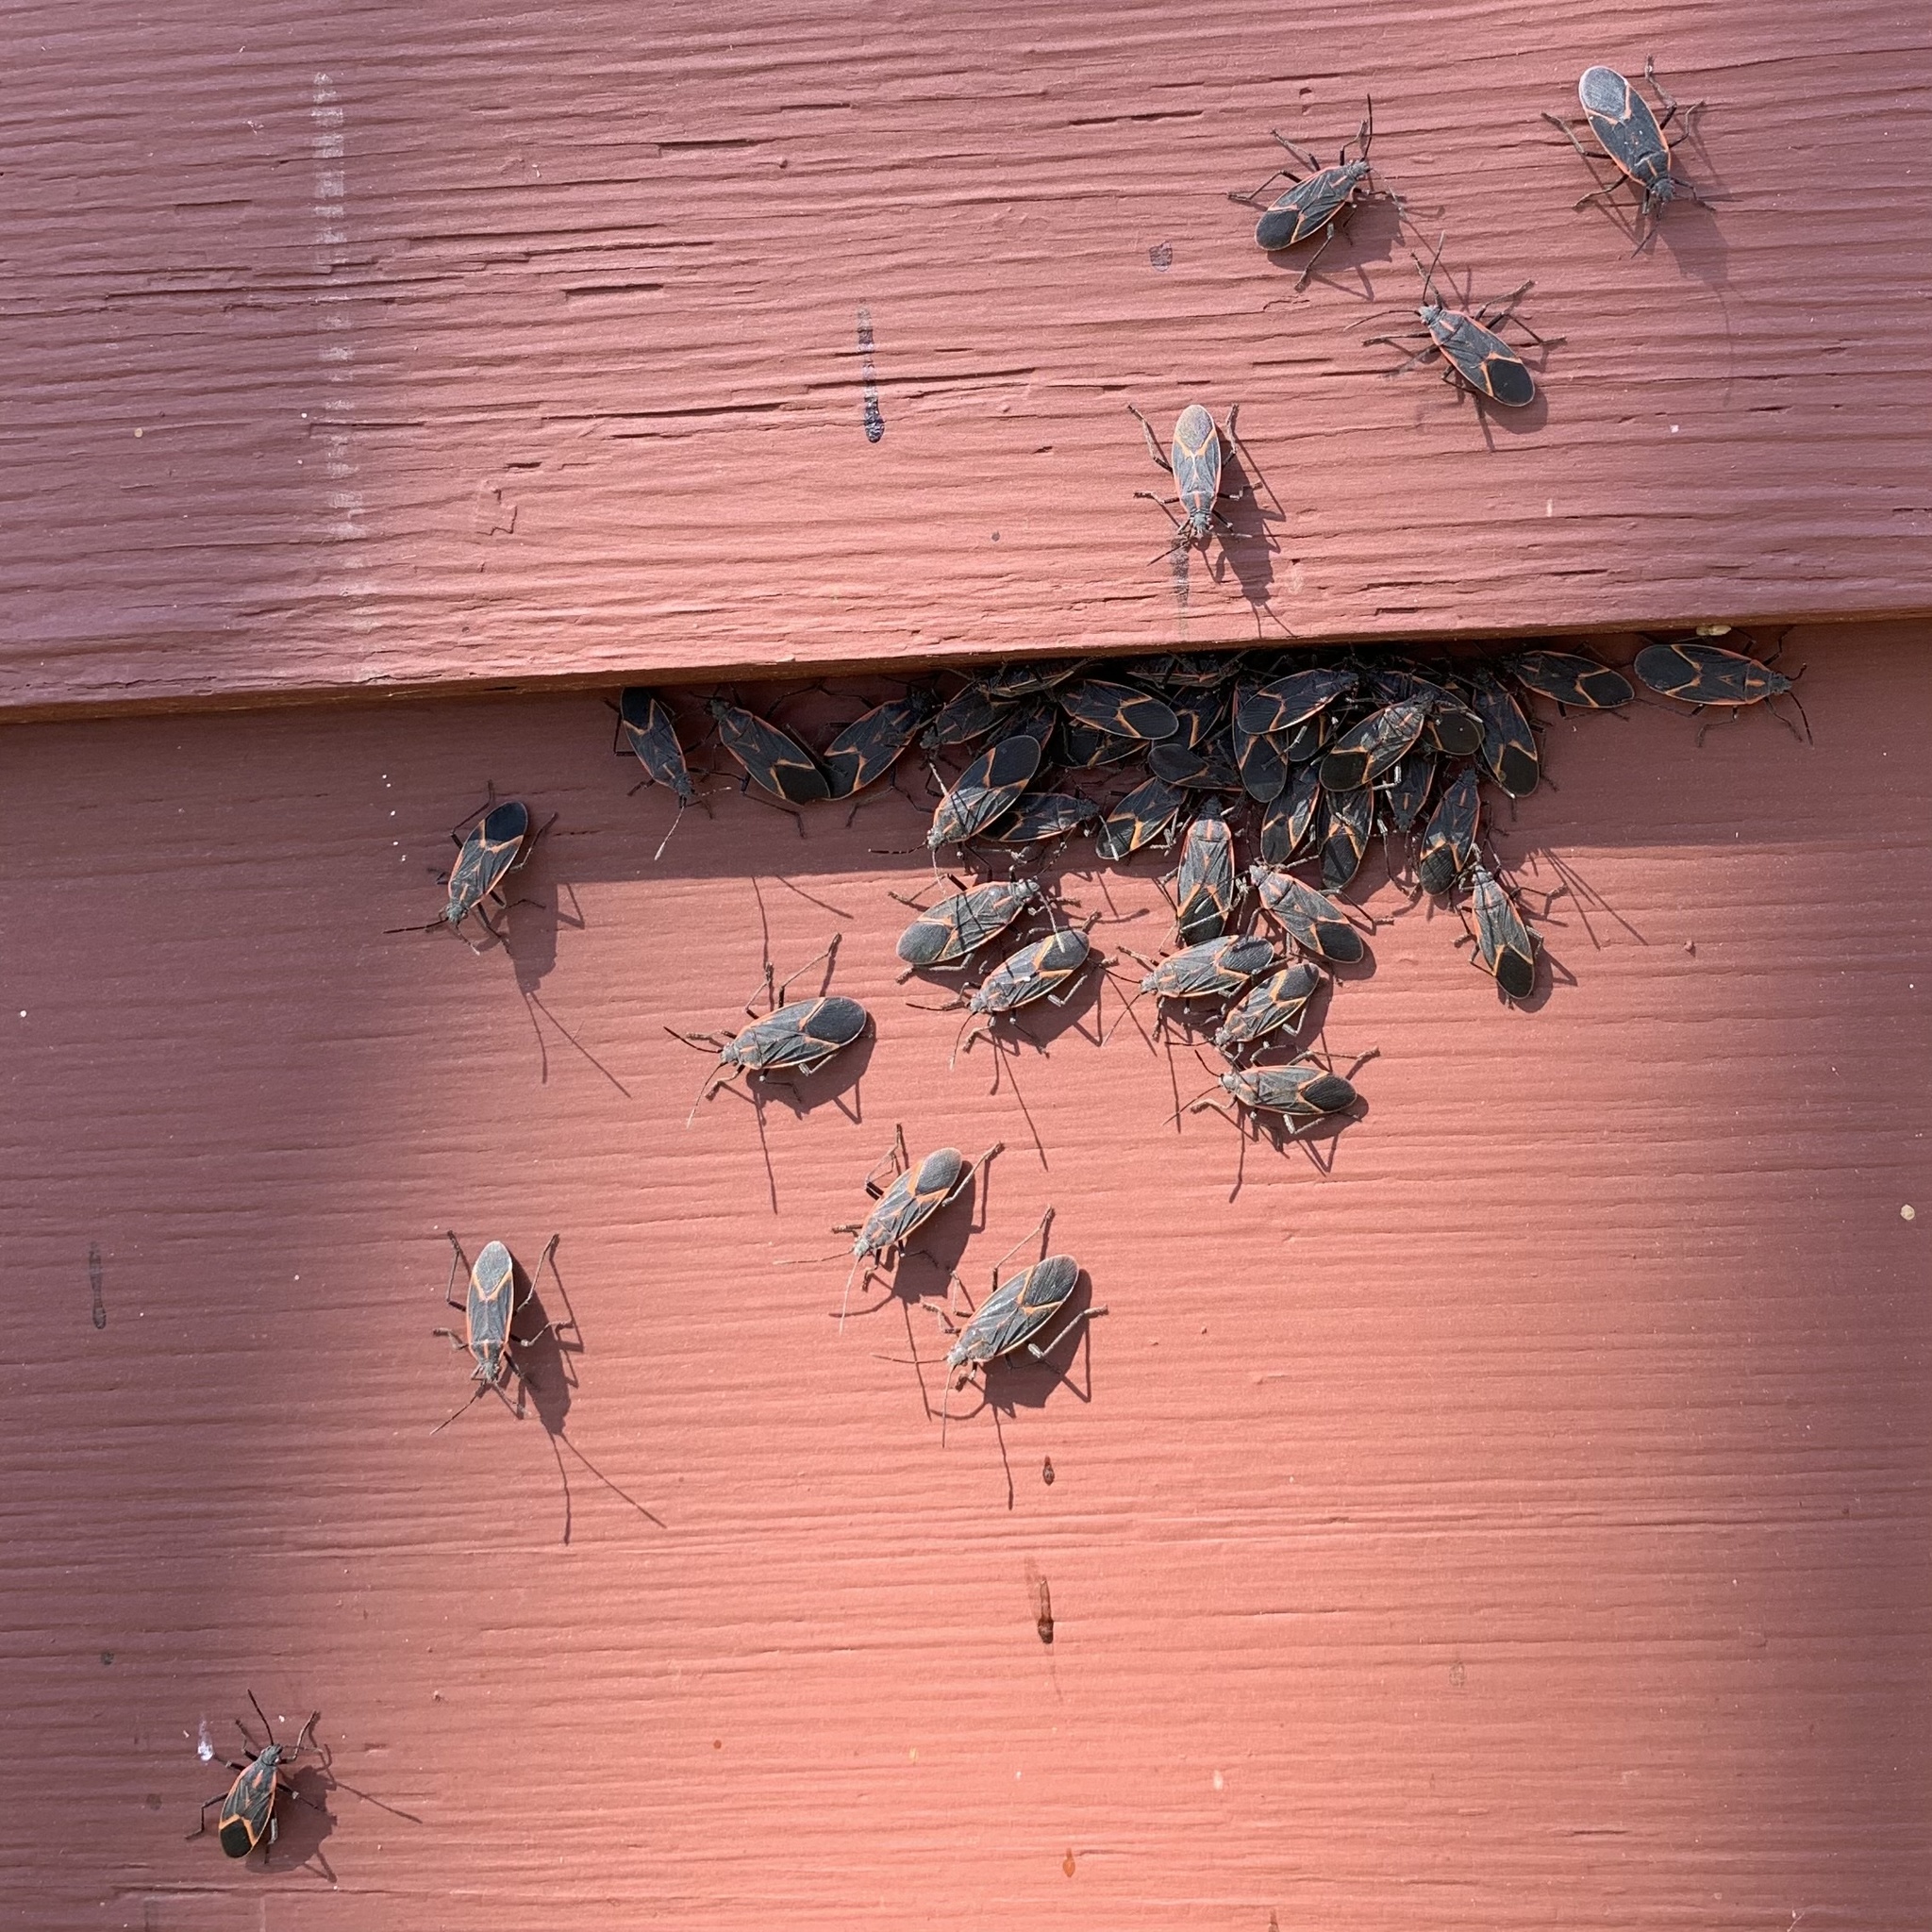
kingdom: Animalia
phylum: Arthropoda
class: Insecta
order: Hemiptera
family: Rhopalidae
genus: Boisea
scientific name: Boisea trivittata
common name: Boxelder bug
